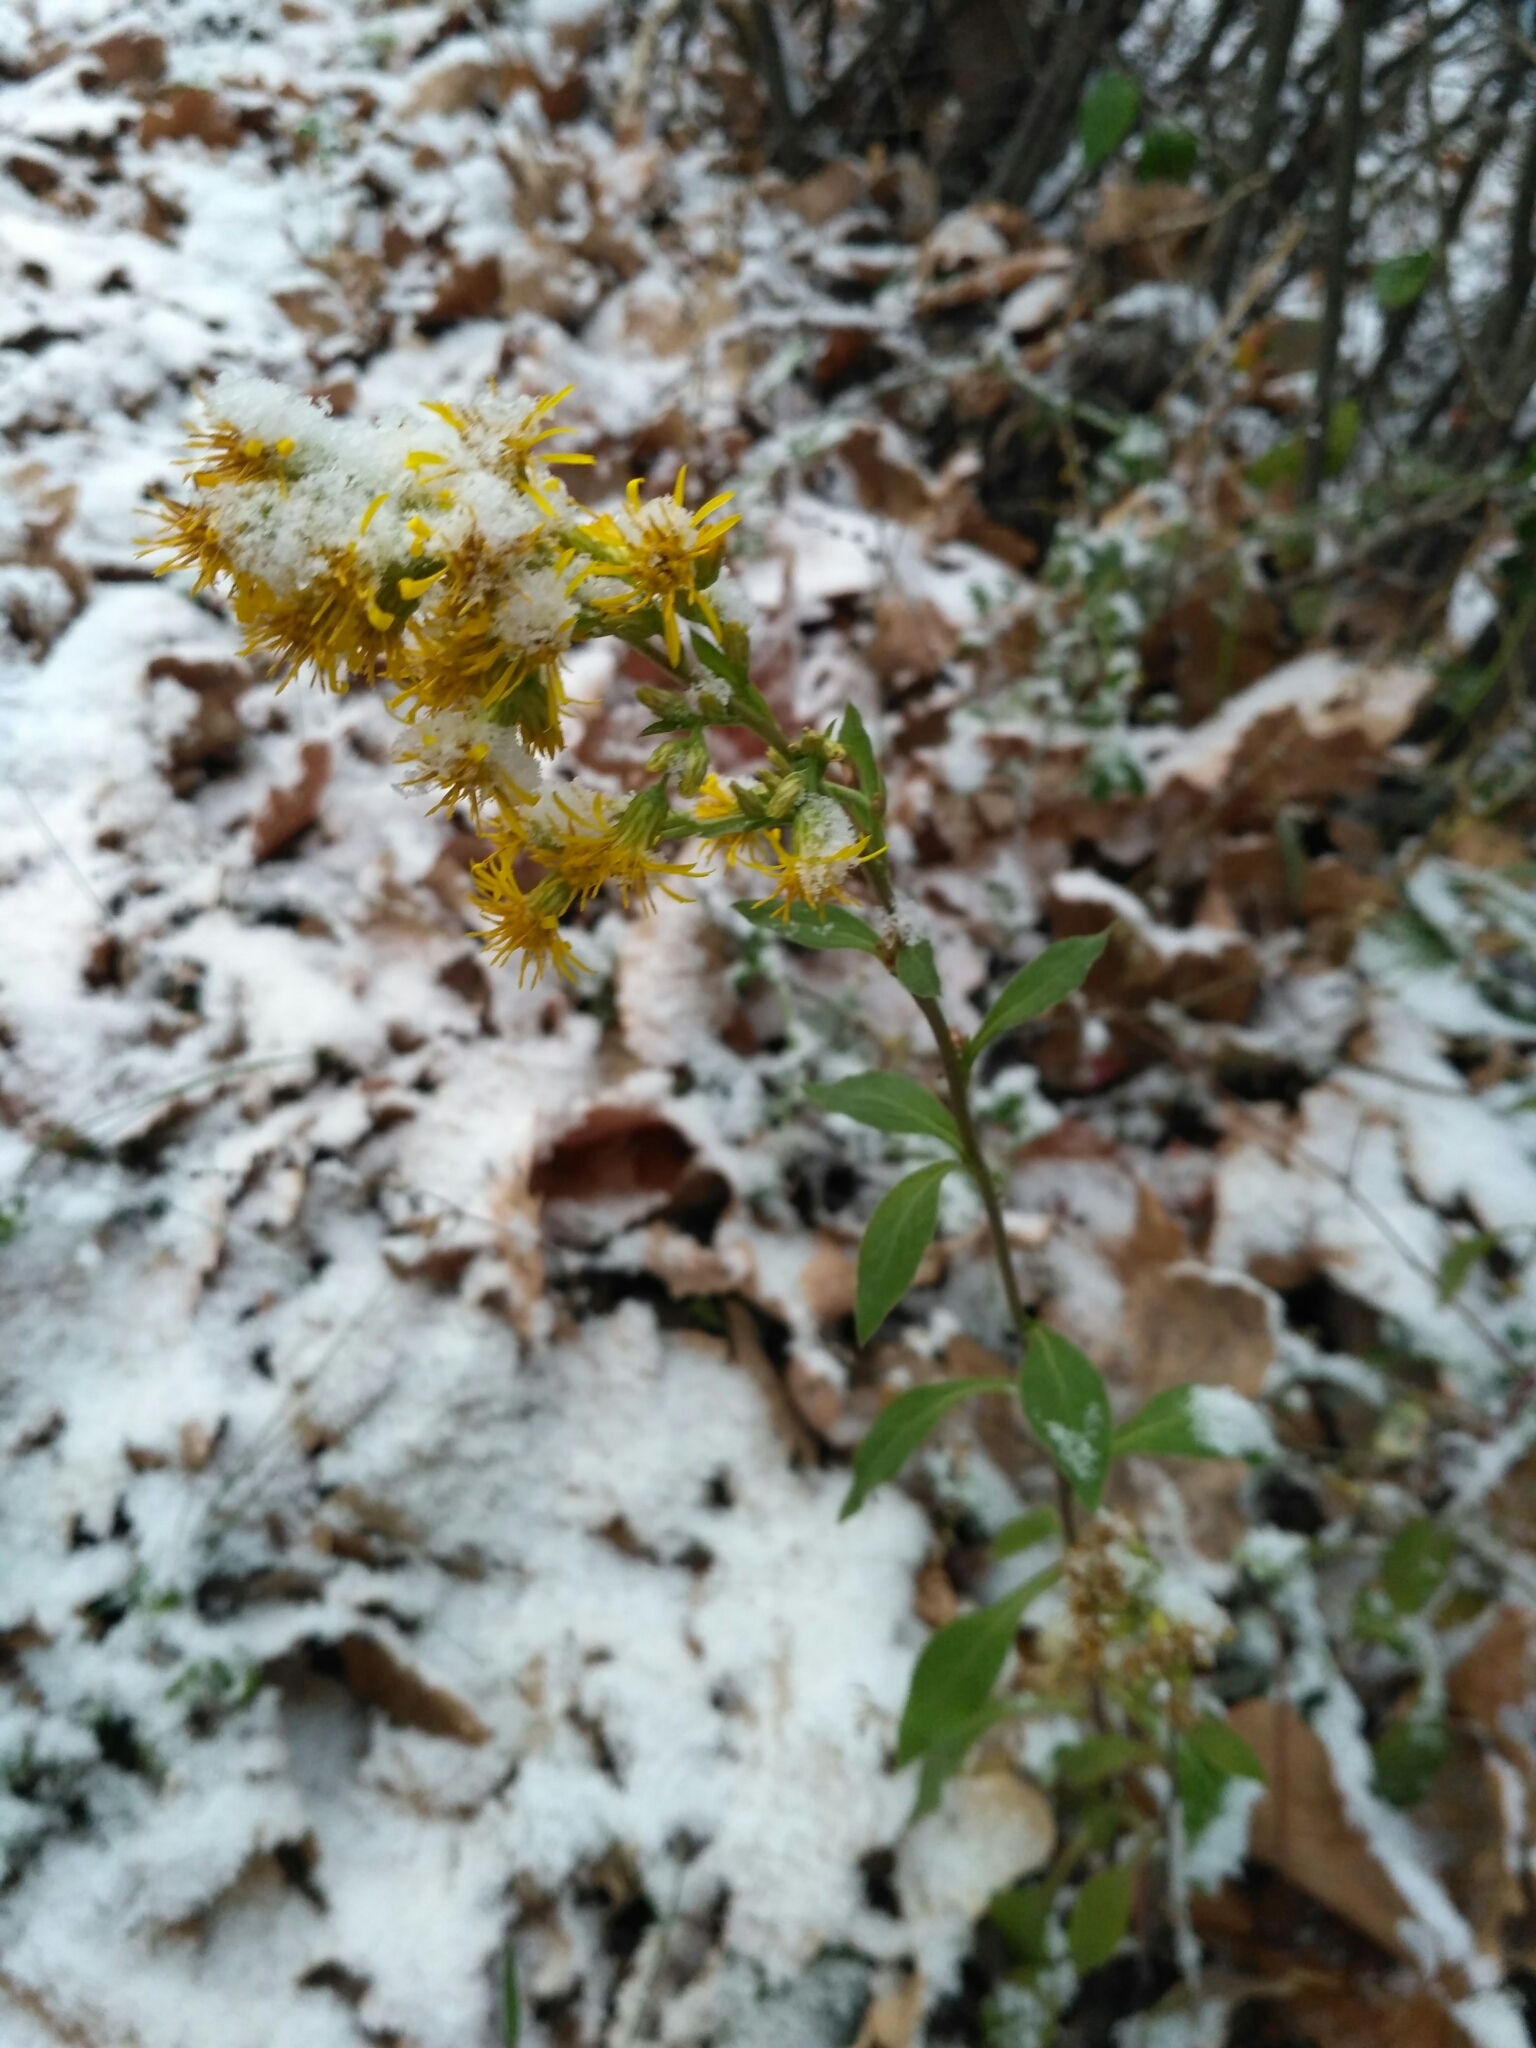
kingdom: Plantae
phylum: Tracheophyta
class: Magnoliopsida
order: Asterales
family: Asteraceae
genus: Solidago
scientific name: Solidago virgaurea
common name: Goldenrod
